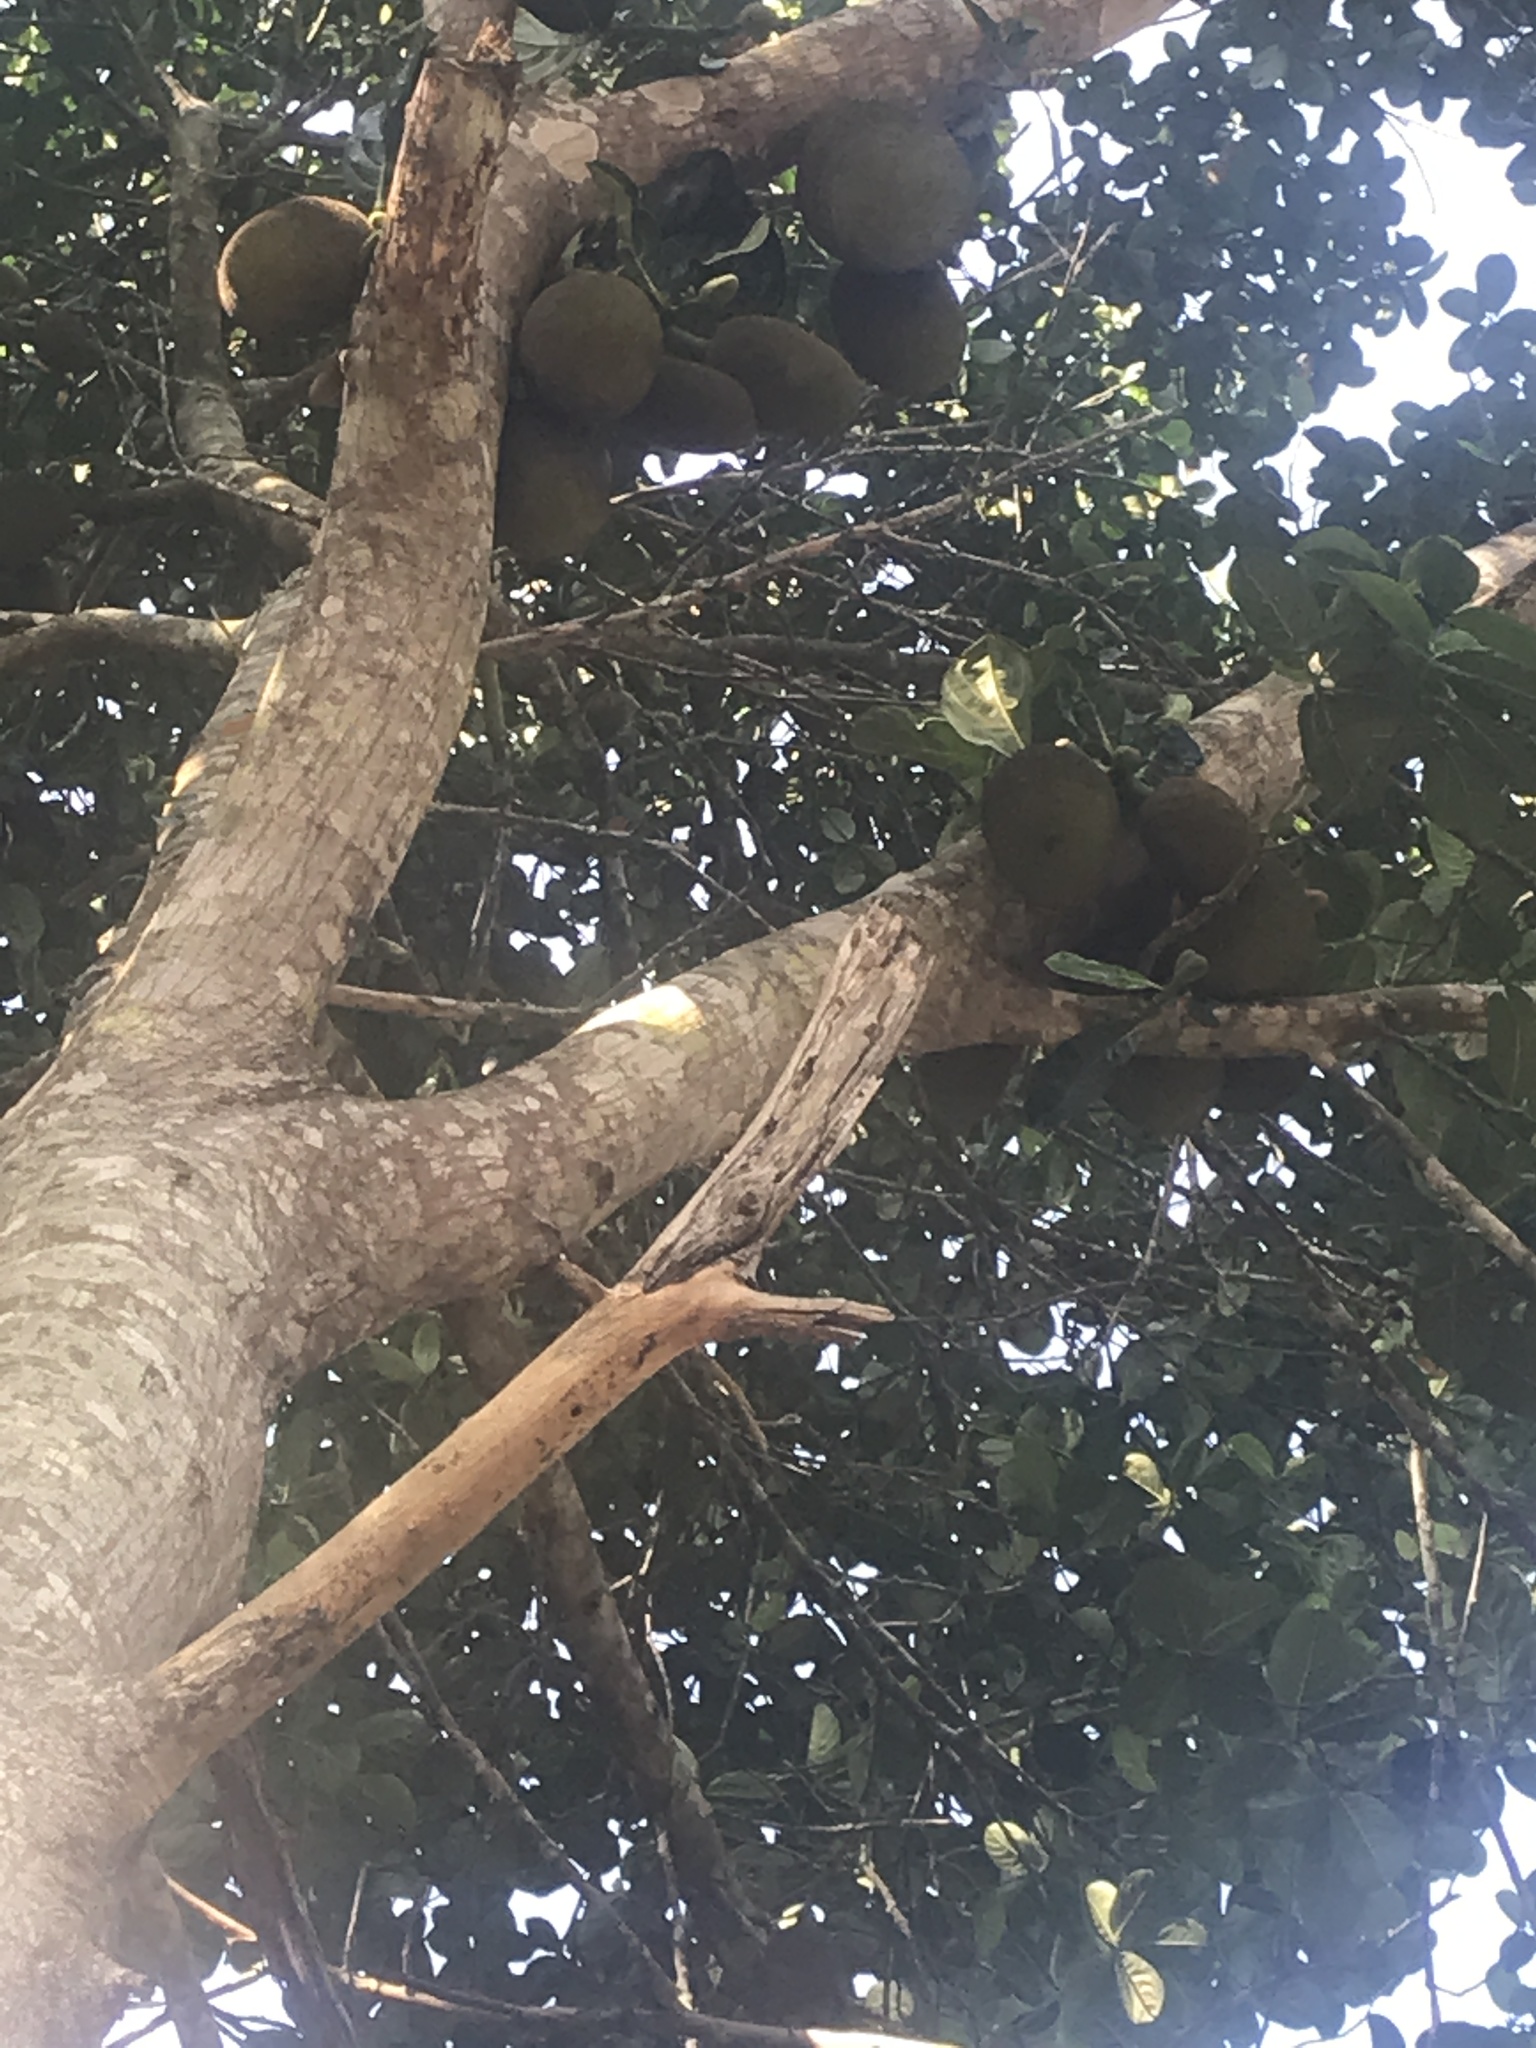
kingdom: Plantae
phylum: Tracheophyta
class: Magnoliopsida
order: Rosales
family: Moraceae
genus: Artocarpus
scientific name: Artocarpus heterophyllus
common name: Jackfruit
